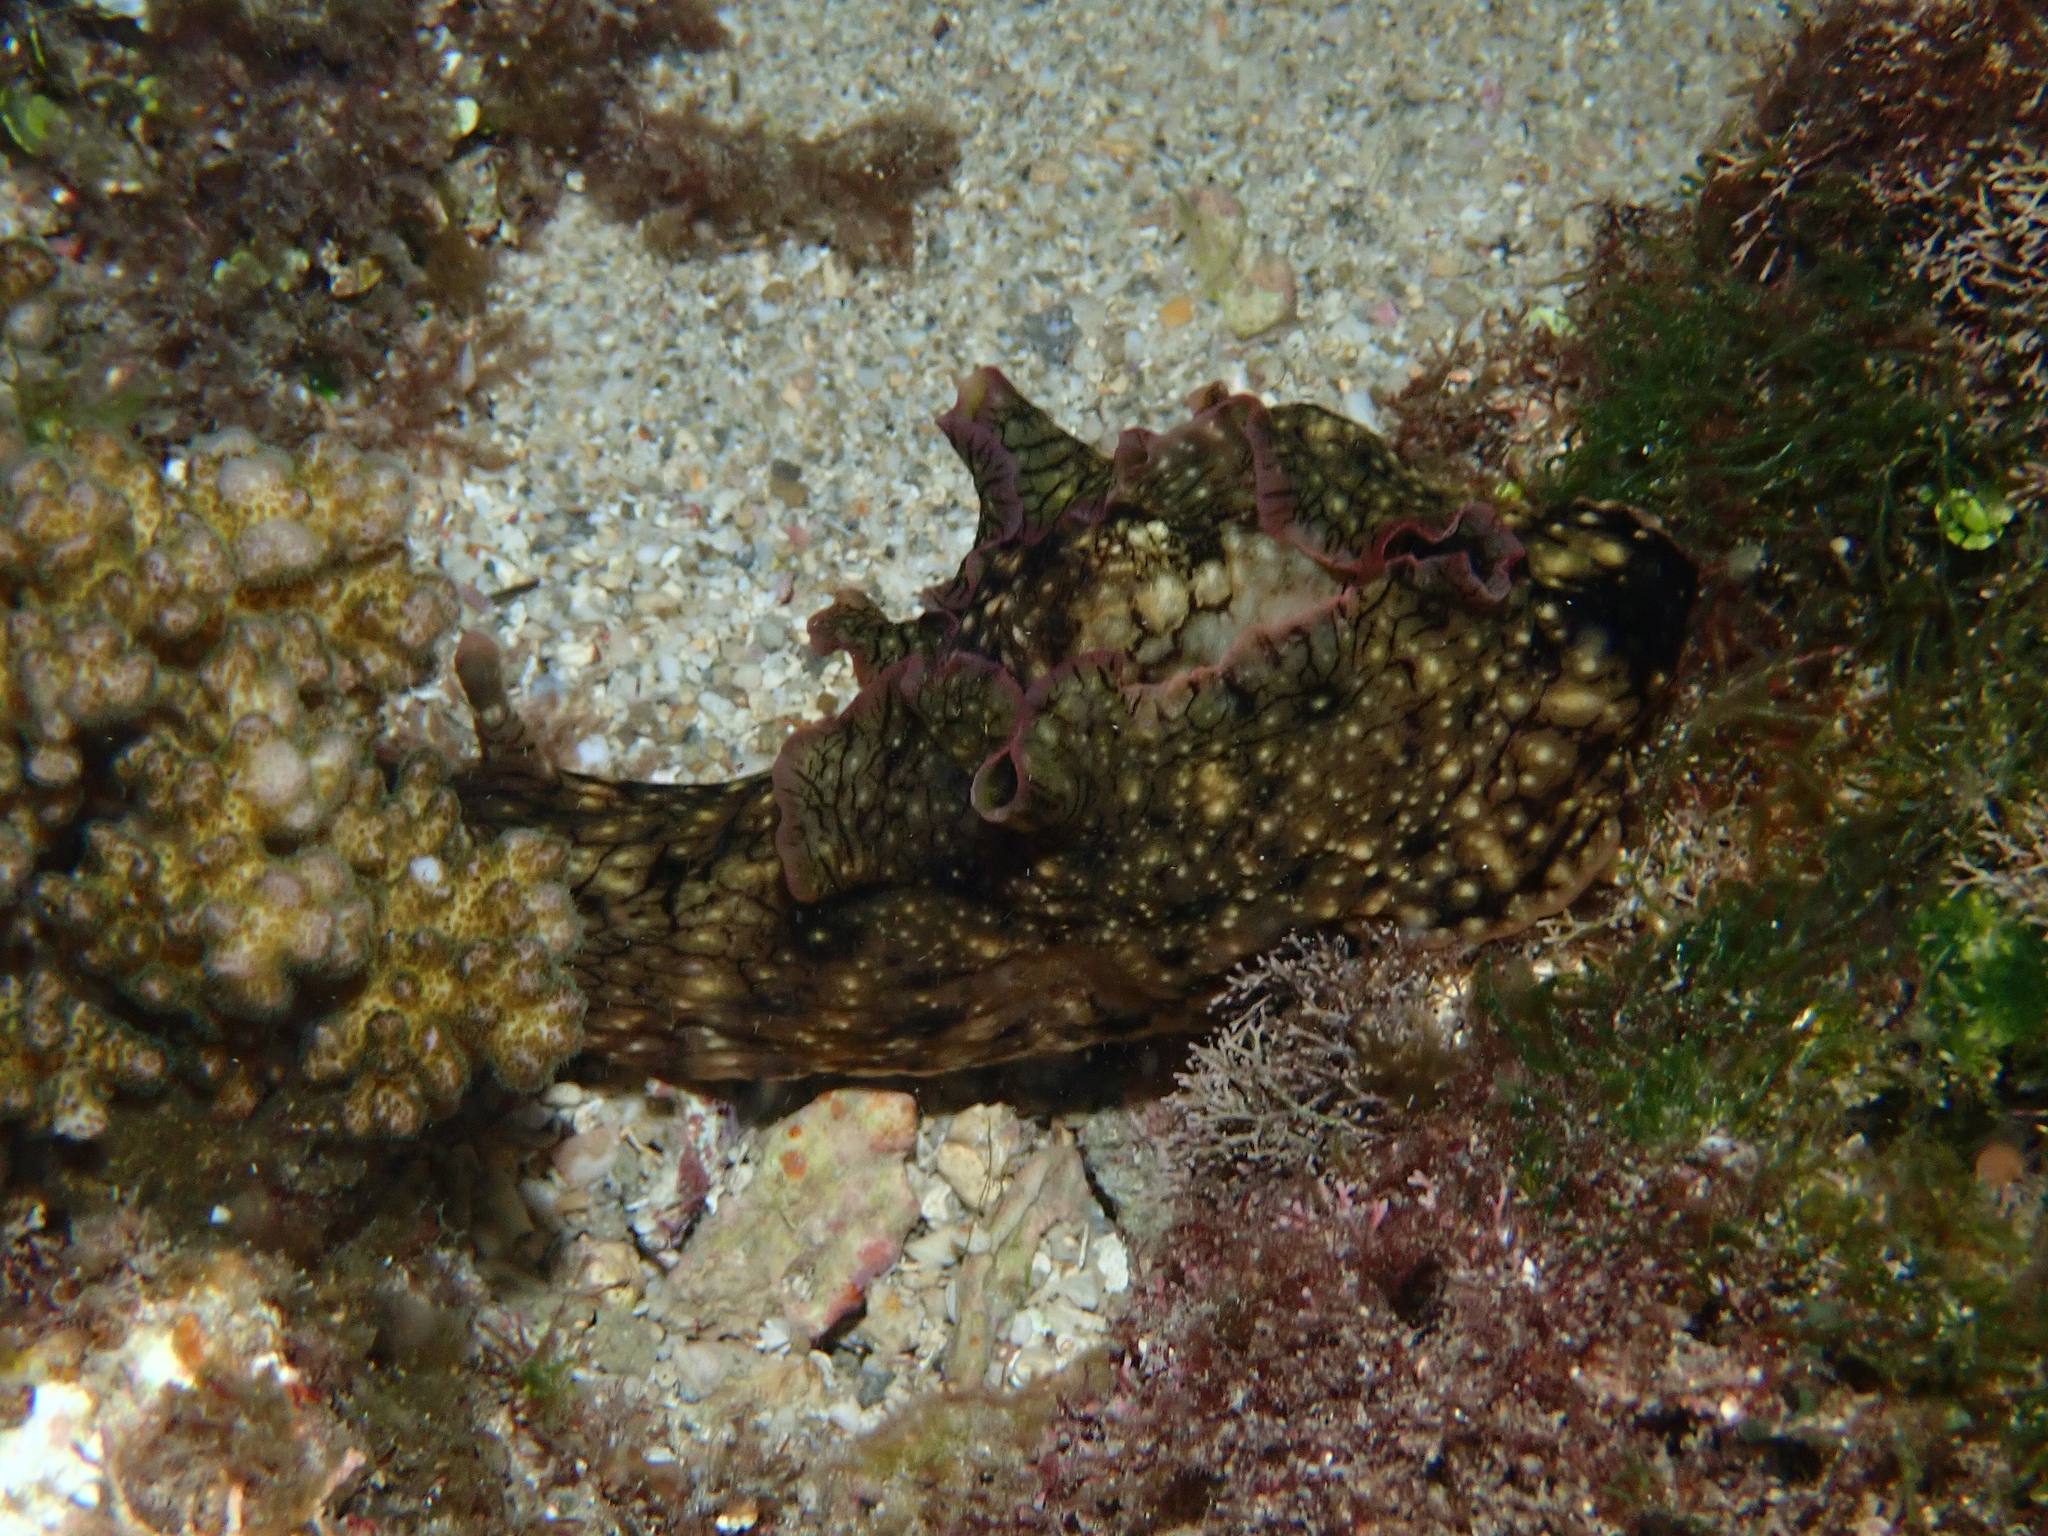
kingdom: Animalia
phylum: Mollusca
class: Gastropoda
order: Aplysiida
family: Aplysiidae
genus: Aplysia
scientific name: Aplysia argus
